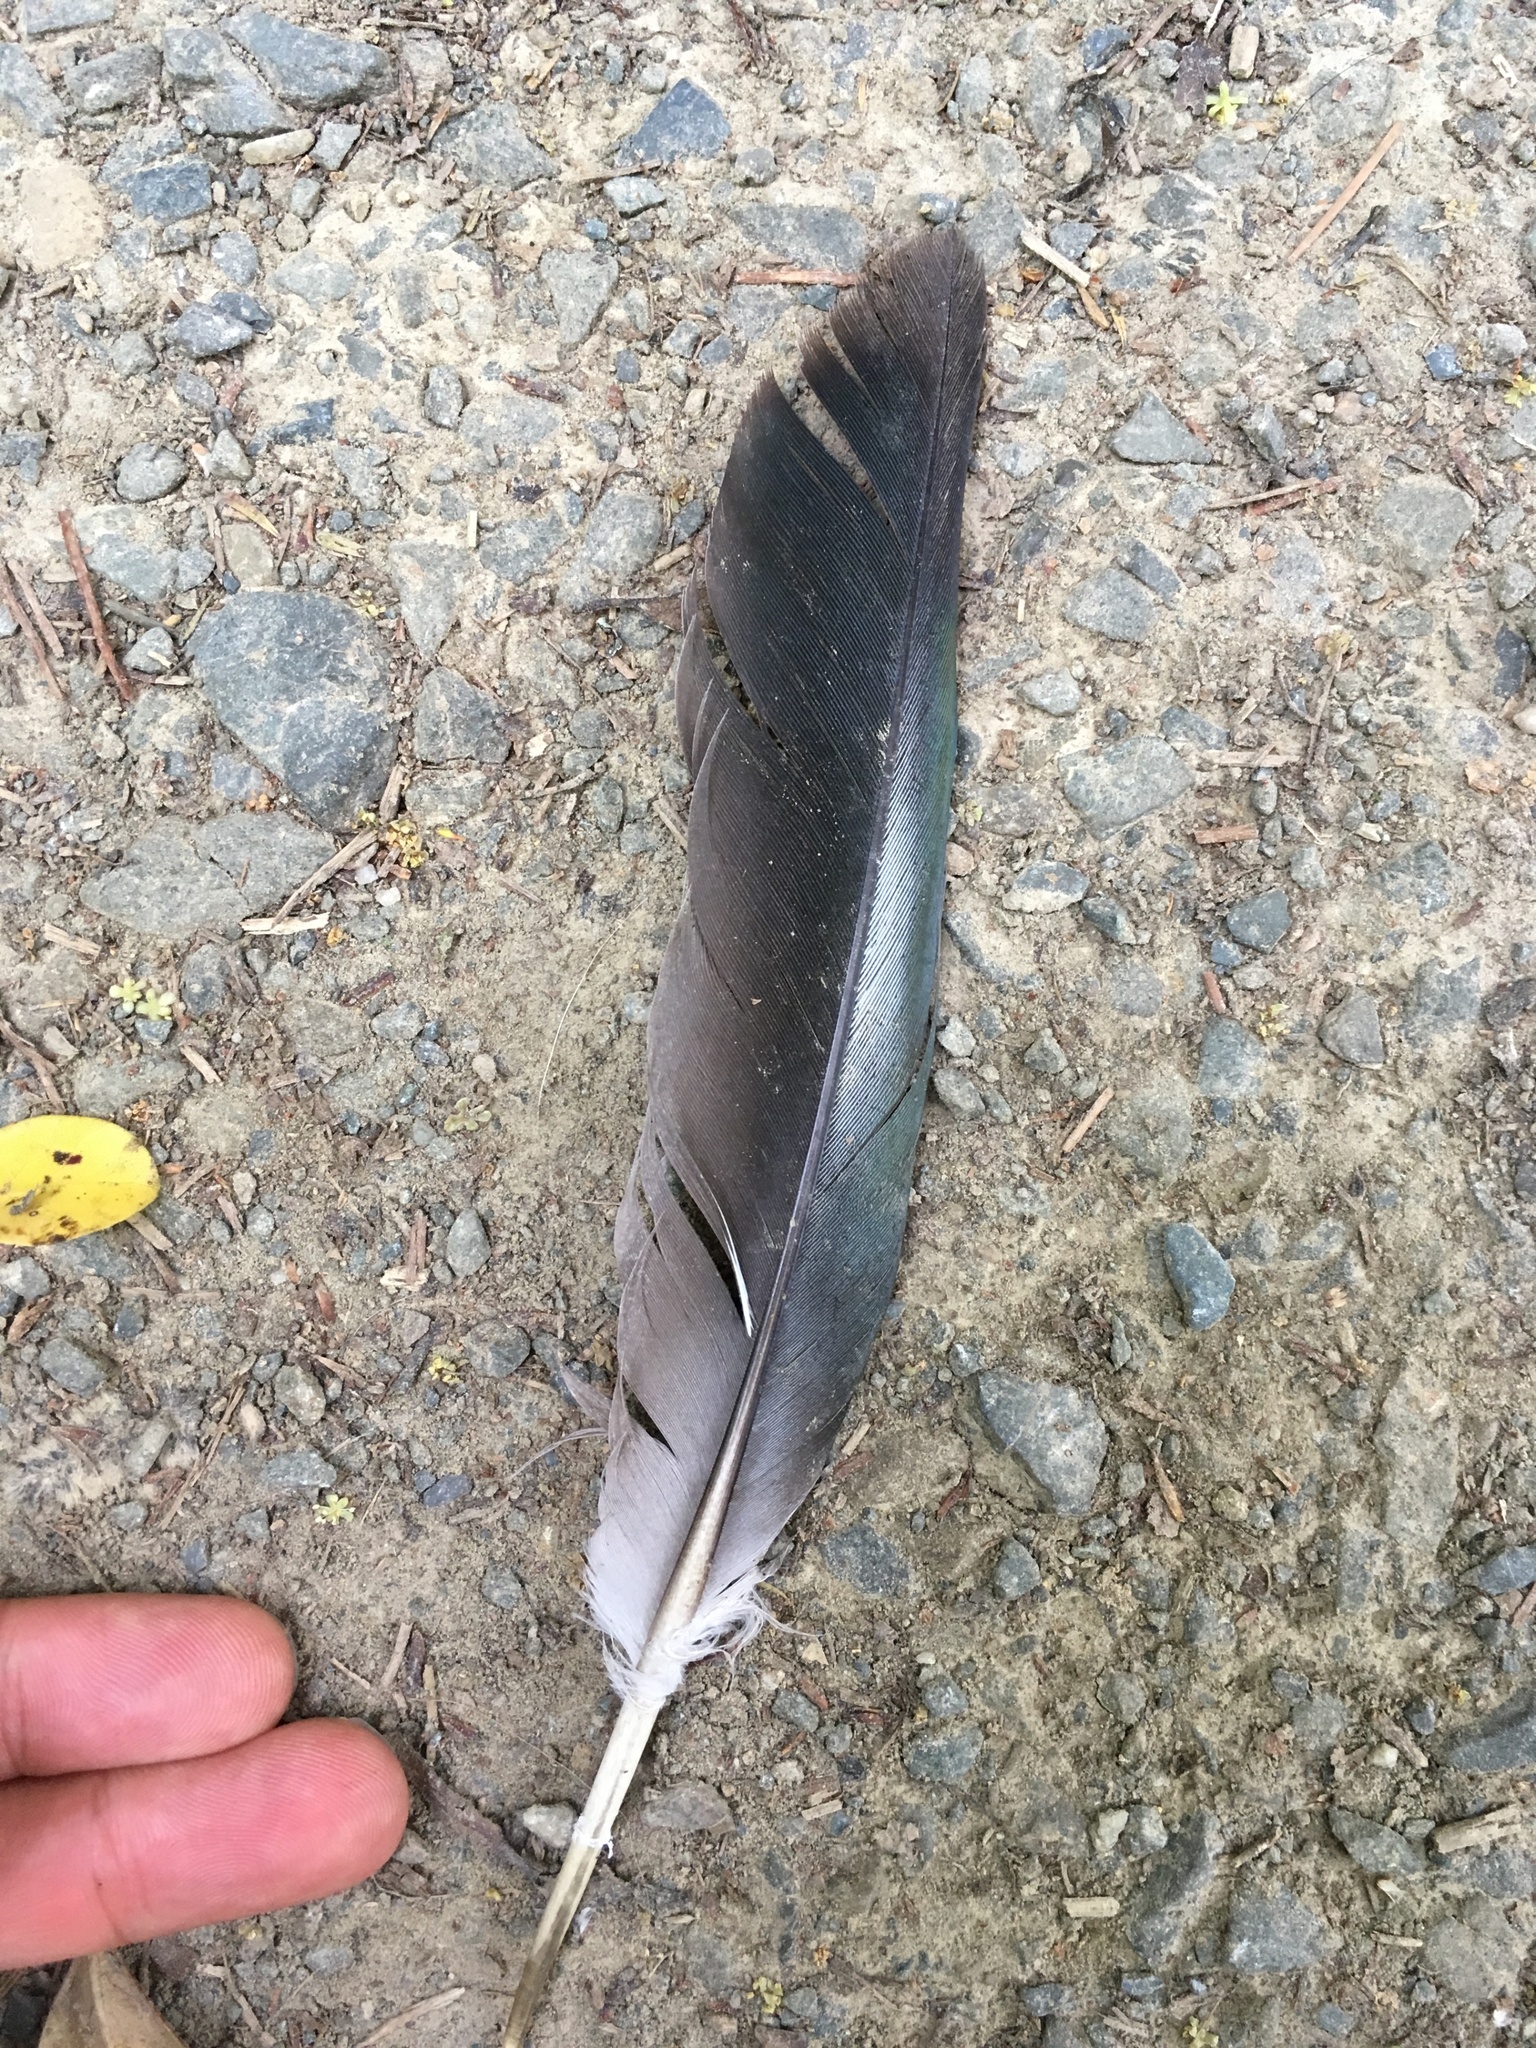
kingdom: Animalia
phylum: Chordata
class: Aves
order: Columbiformes
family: Columbidae
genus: Hemiphaga
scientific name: Hemiphaga novaeseelandiae
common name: New zealand pigeon
